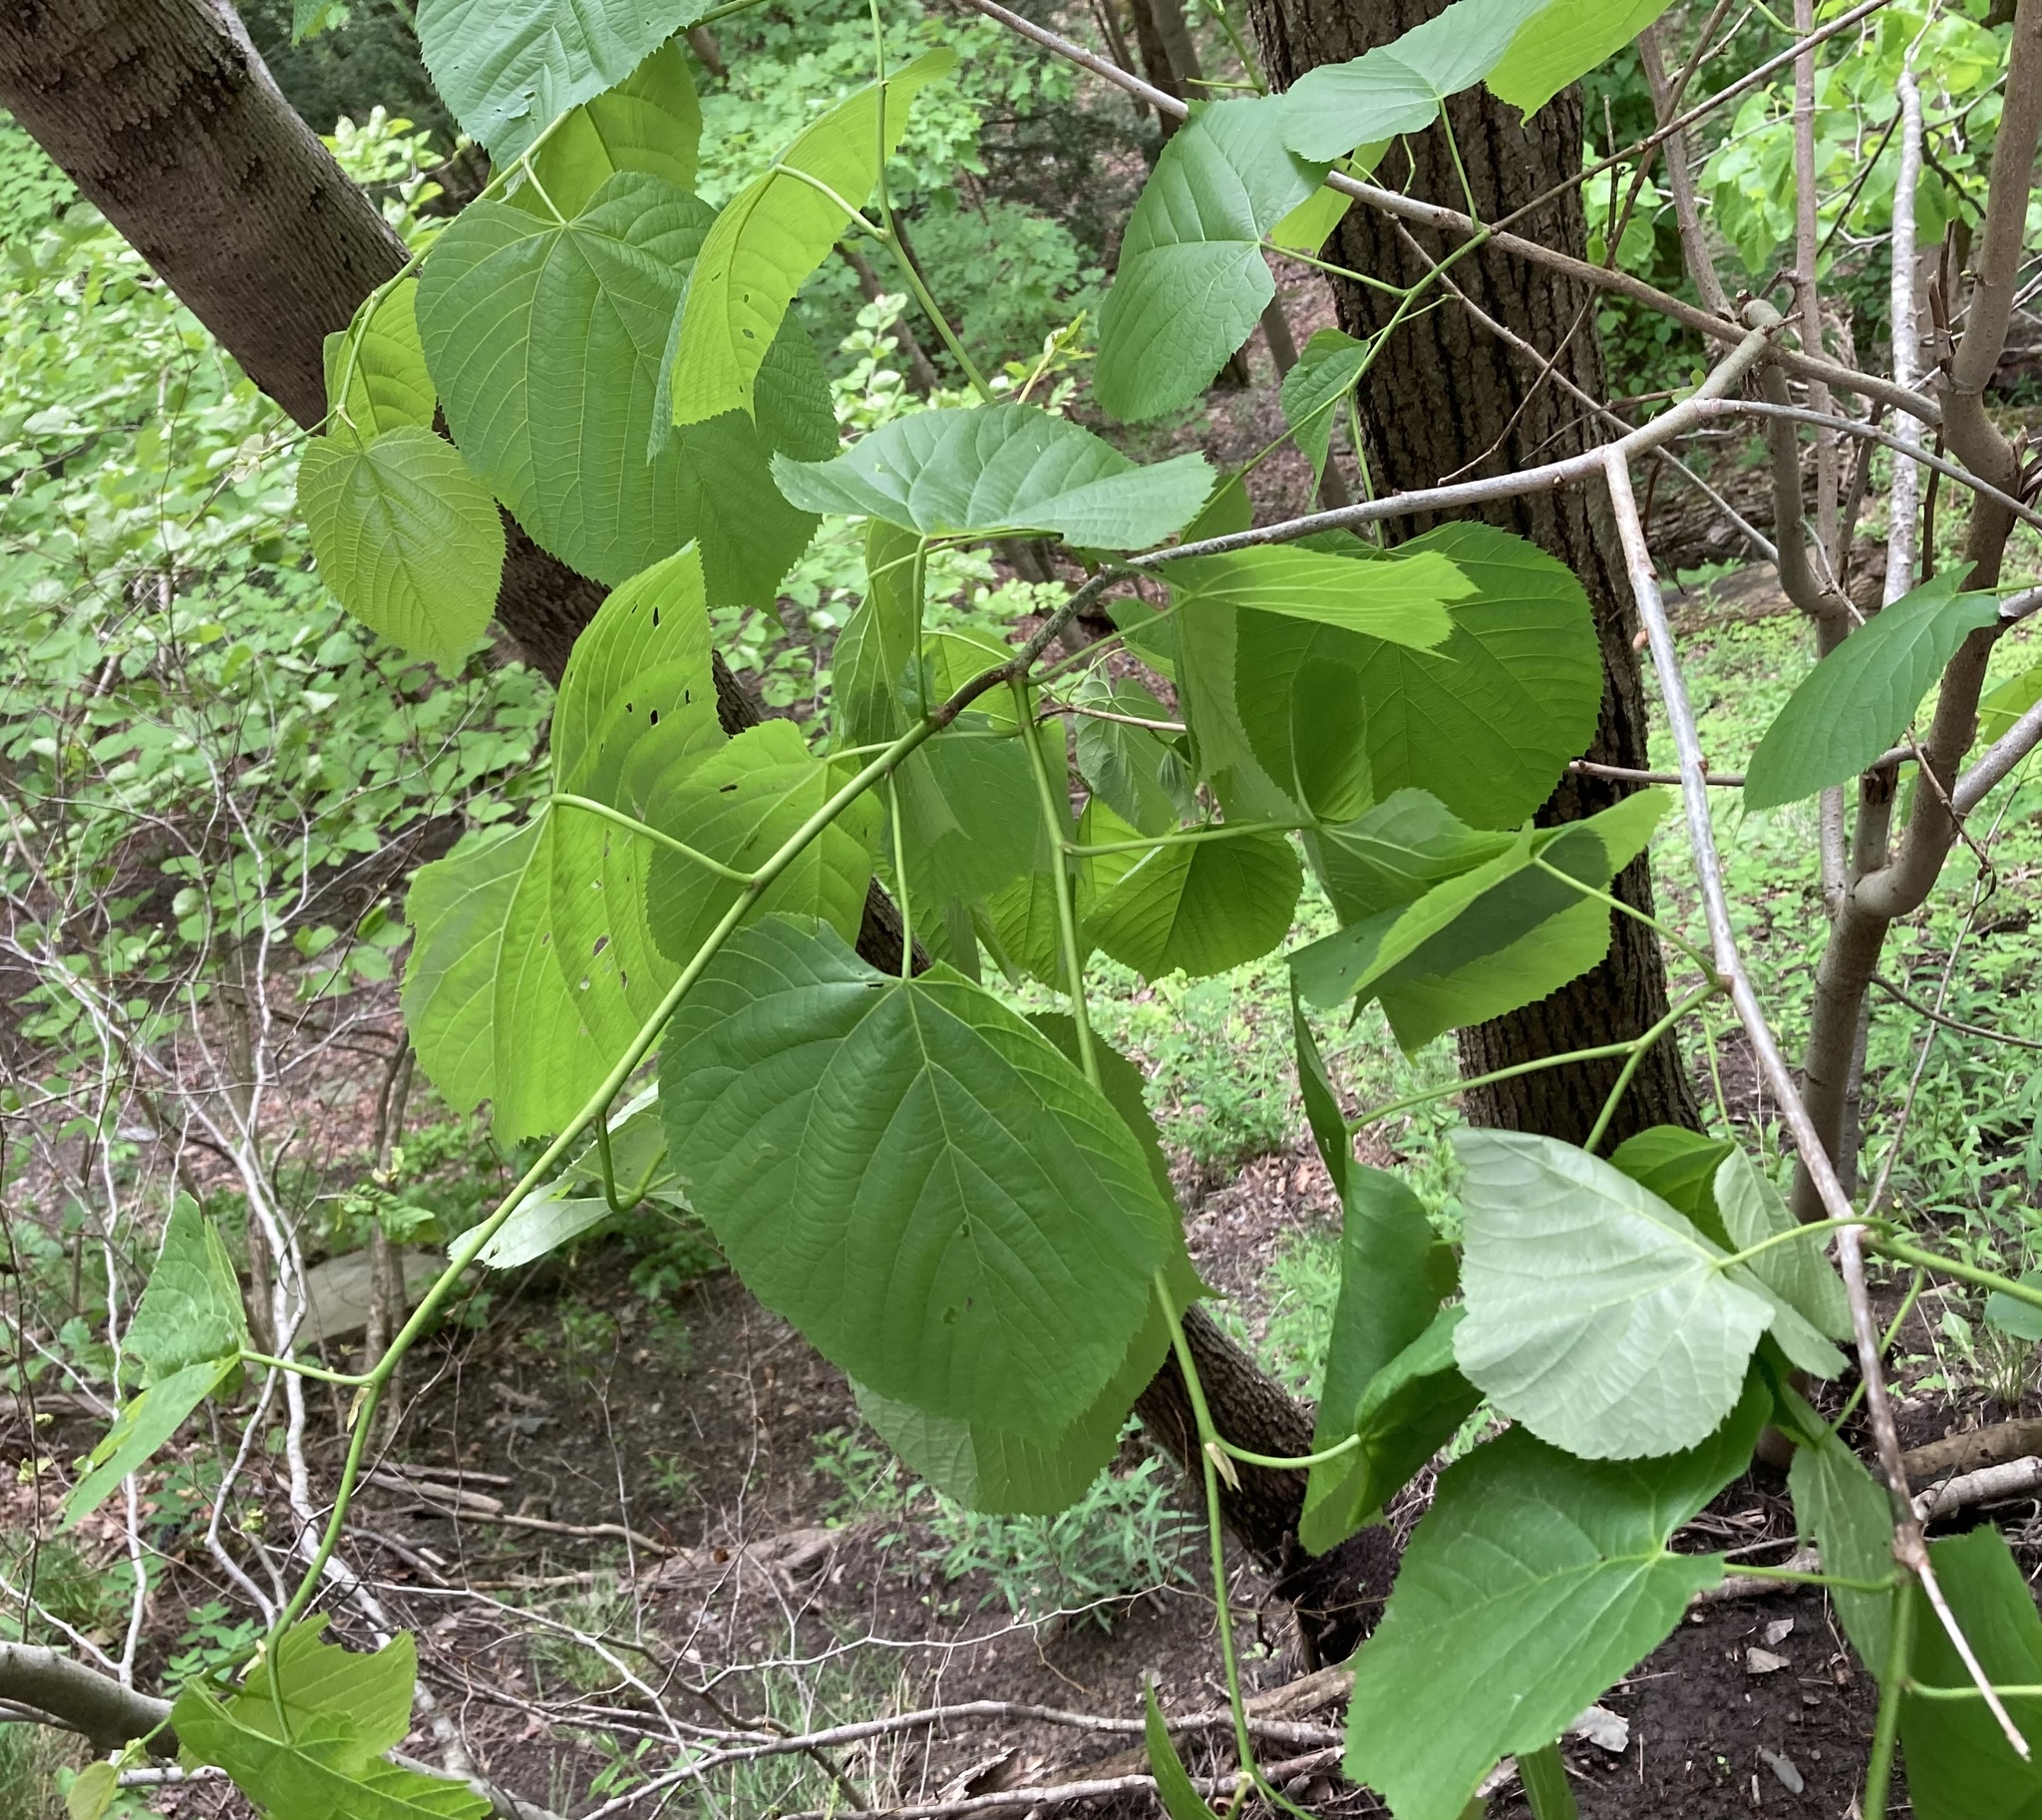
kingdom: Plantae
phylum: Tracheophyta
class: Magnoliopsida
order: Malvales
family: Malvaceae
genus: Tilia
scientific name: Tilia americana
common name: Basswood
